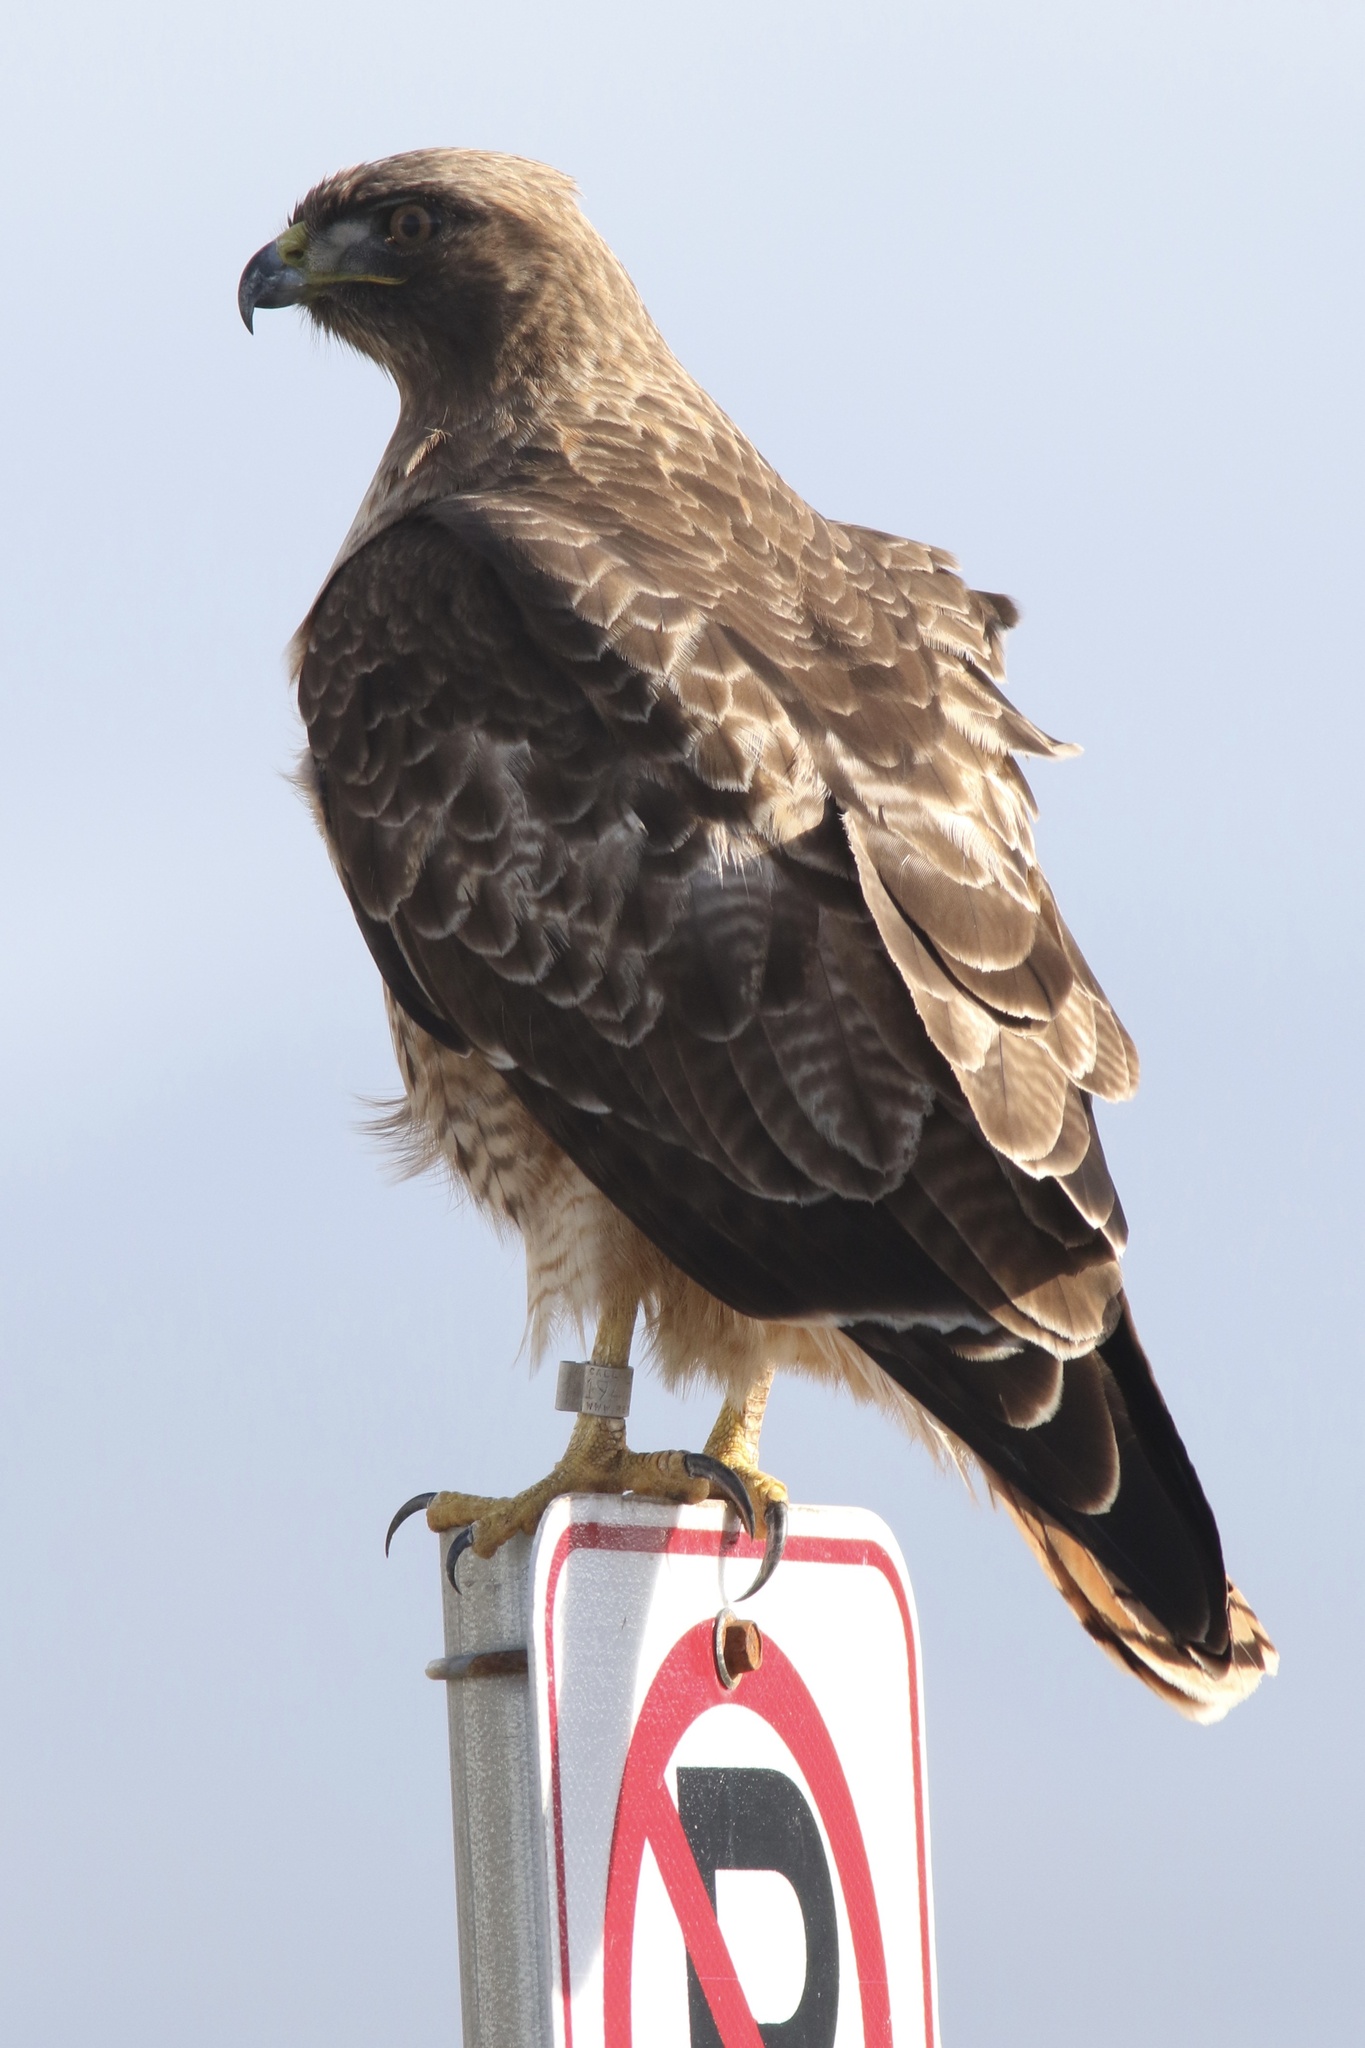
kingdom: Animalia
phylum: Chordata
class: Aves
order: Accipitriformes
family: Accipitridae
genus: Buteo
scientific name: Buteo jamaicensis
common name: Red-tailed hawk
